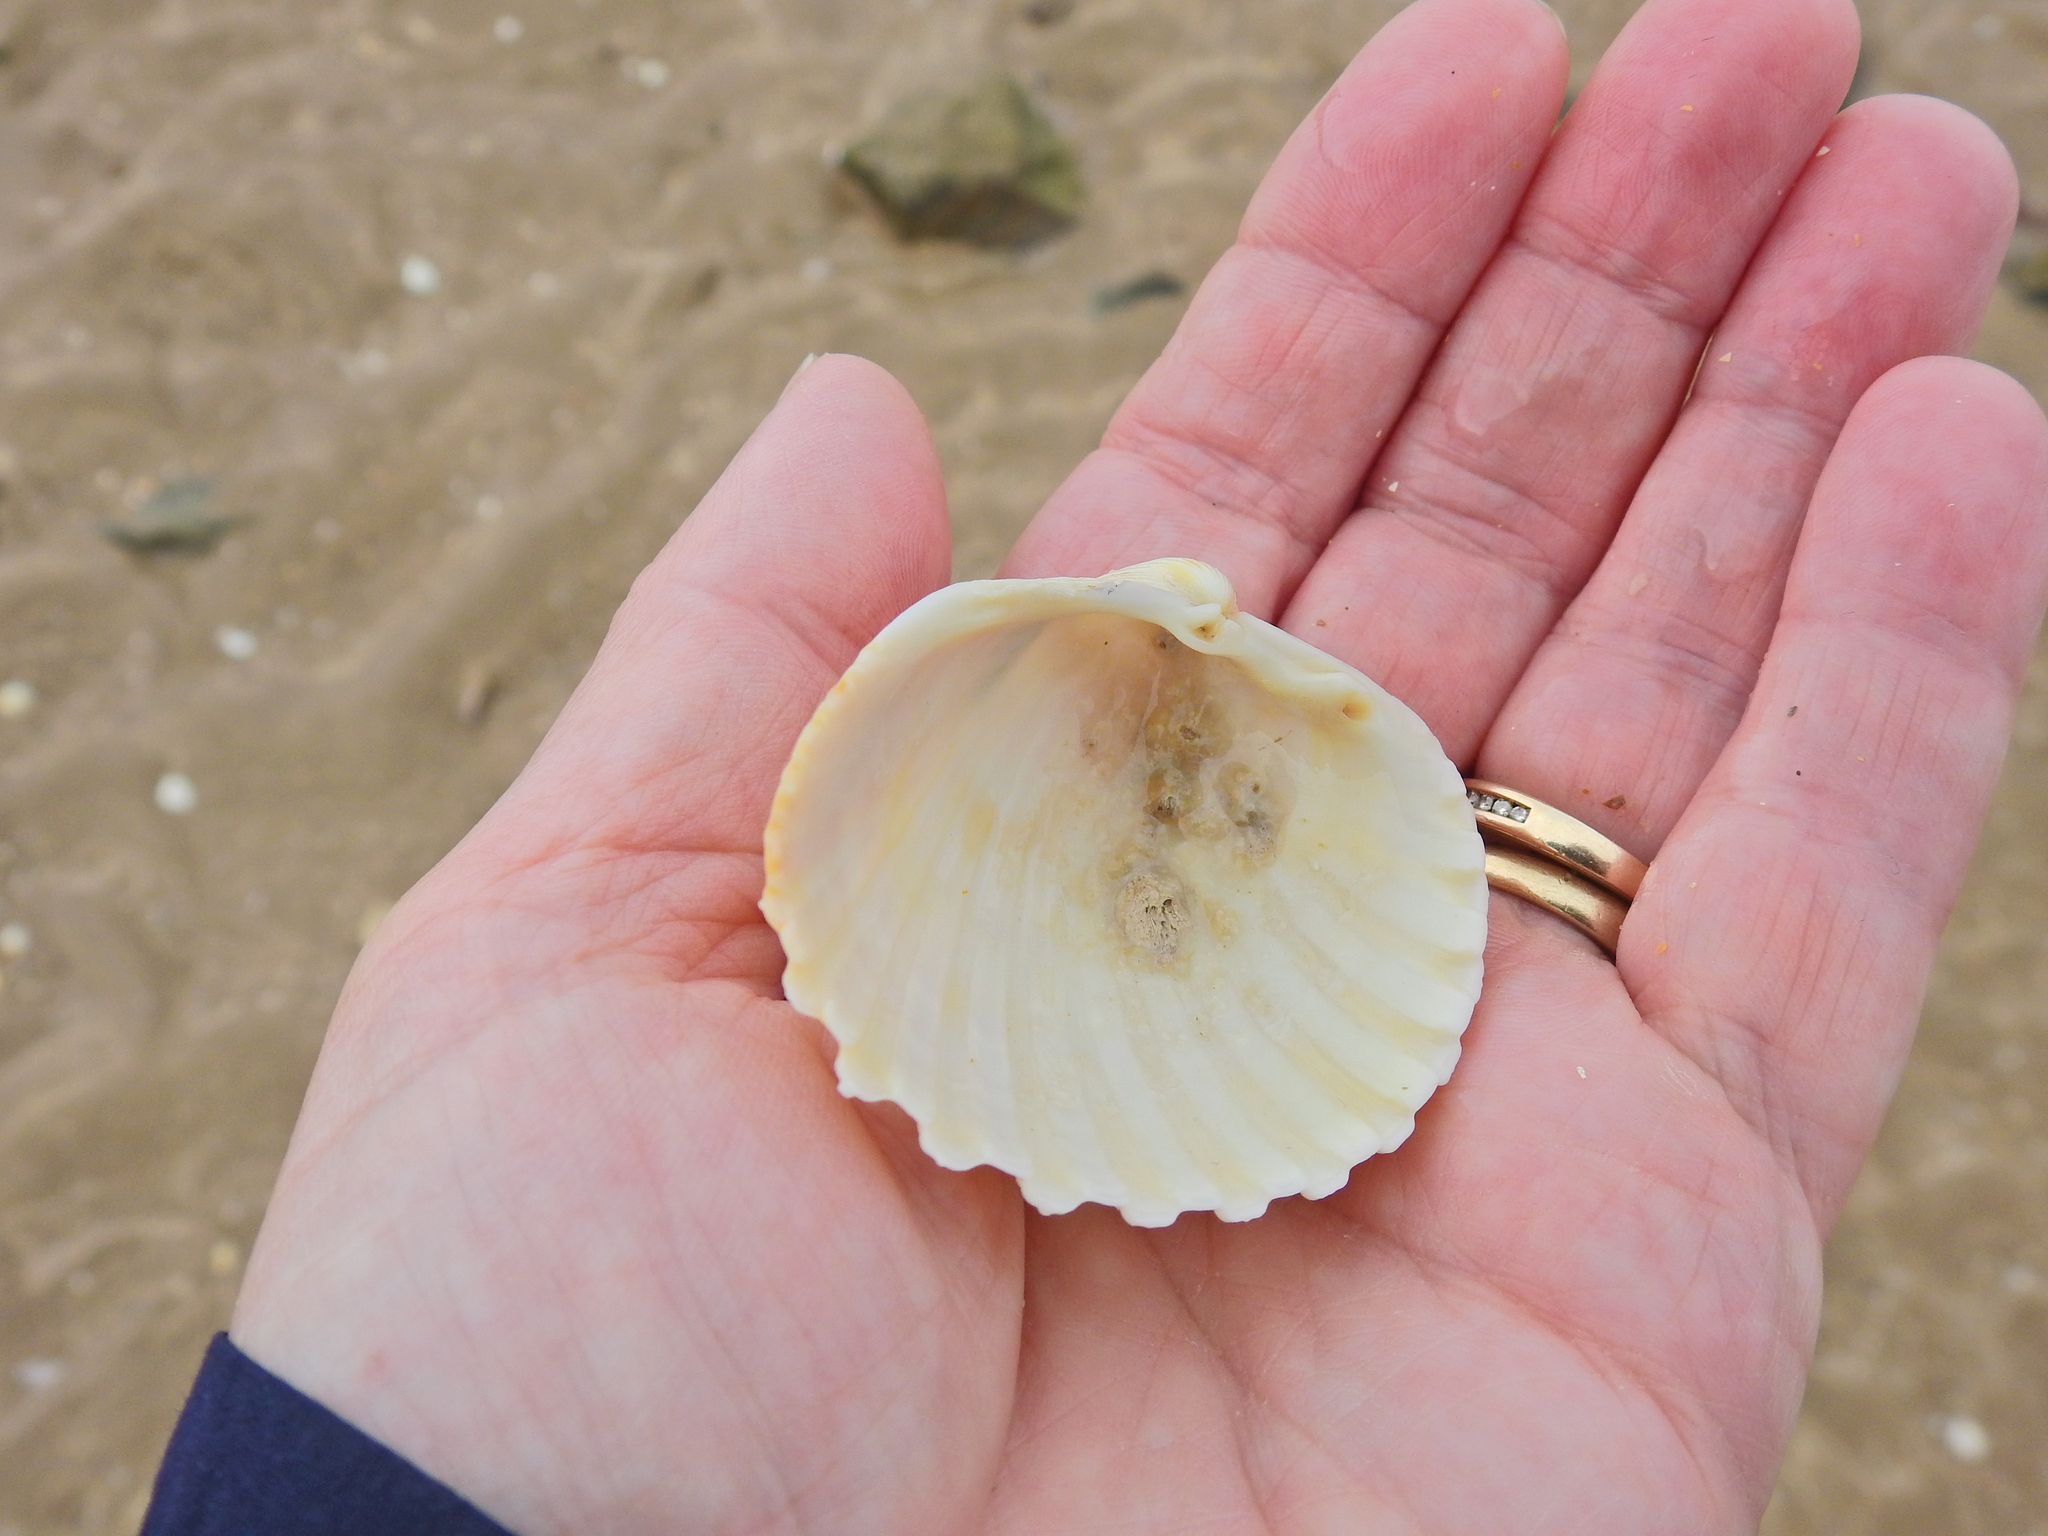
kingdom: Animalia
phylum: Mollusca
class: Bivalvia
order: Cardiida
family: Cardiidae
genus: Acanthocardia
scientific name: Acanthocardia echinata
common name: Prickly cockle
